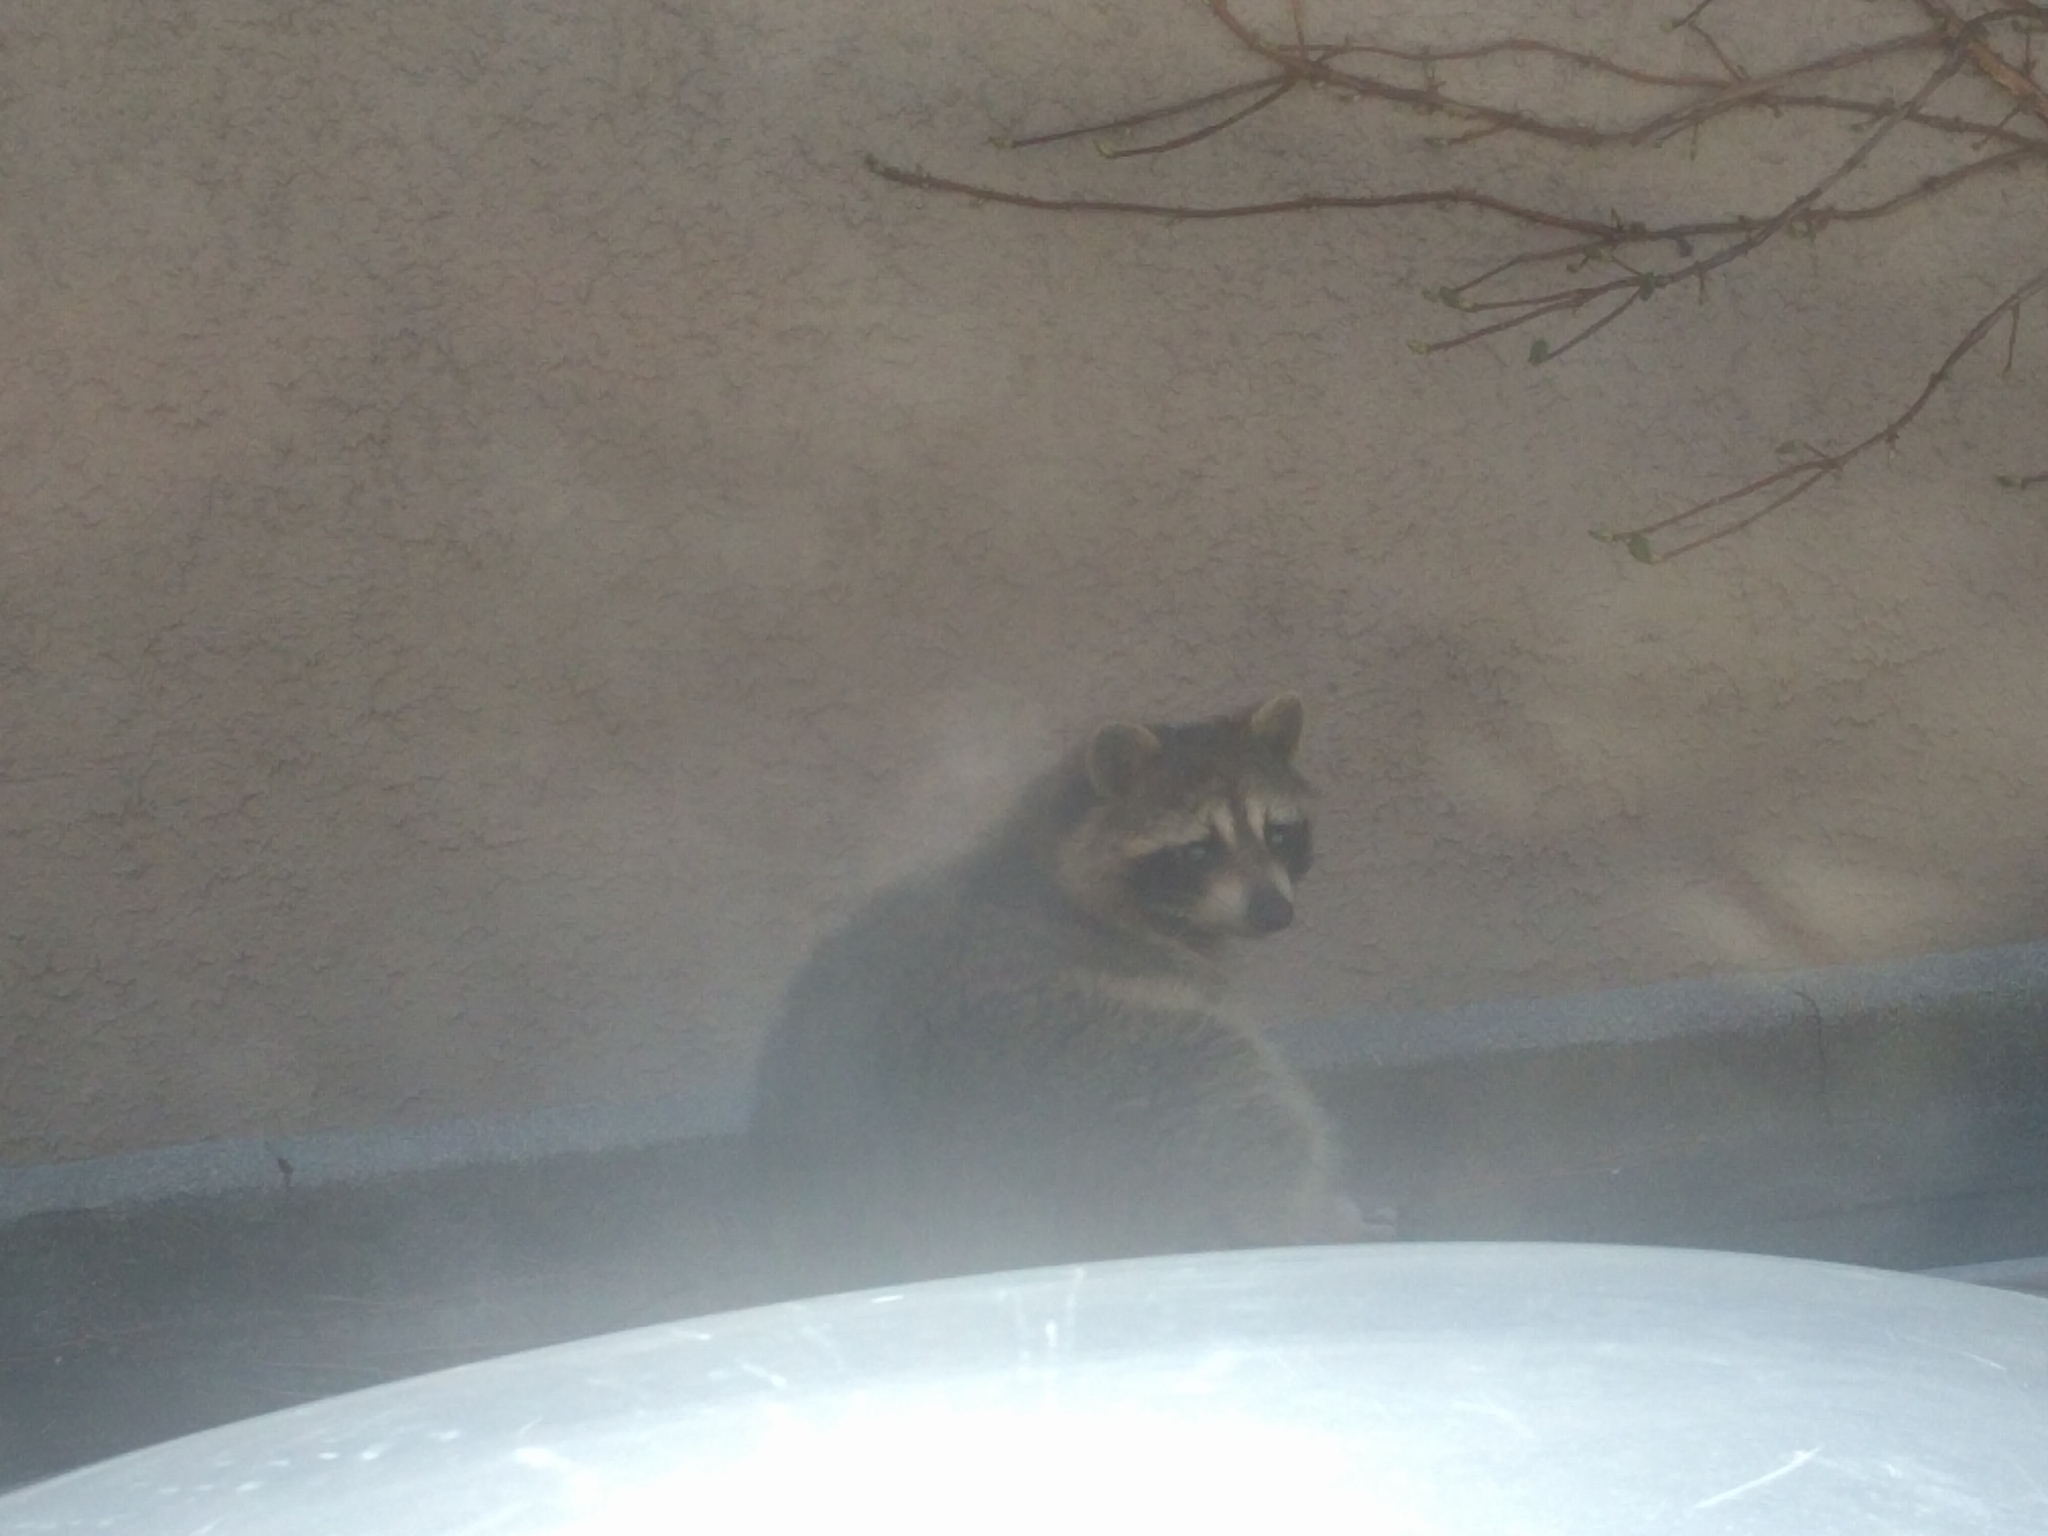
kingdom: Animalia
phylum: Chordata
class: Mammalia
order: Carnivora
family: Procyonidae
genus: Procyon
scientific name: Procyon lotor
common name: Raccoon
